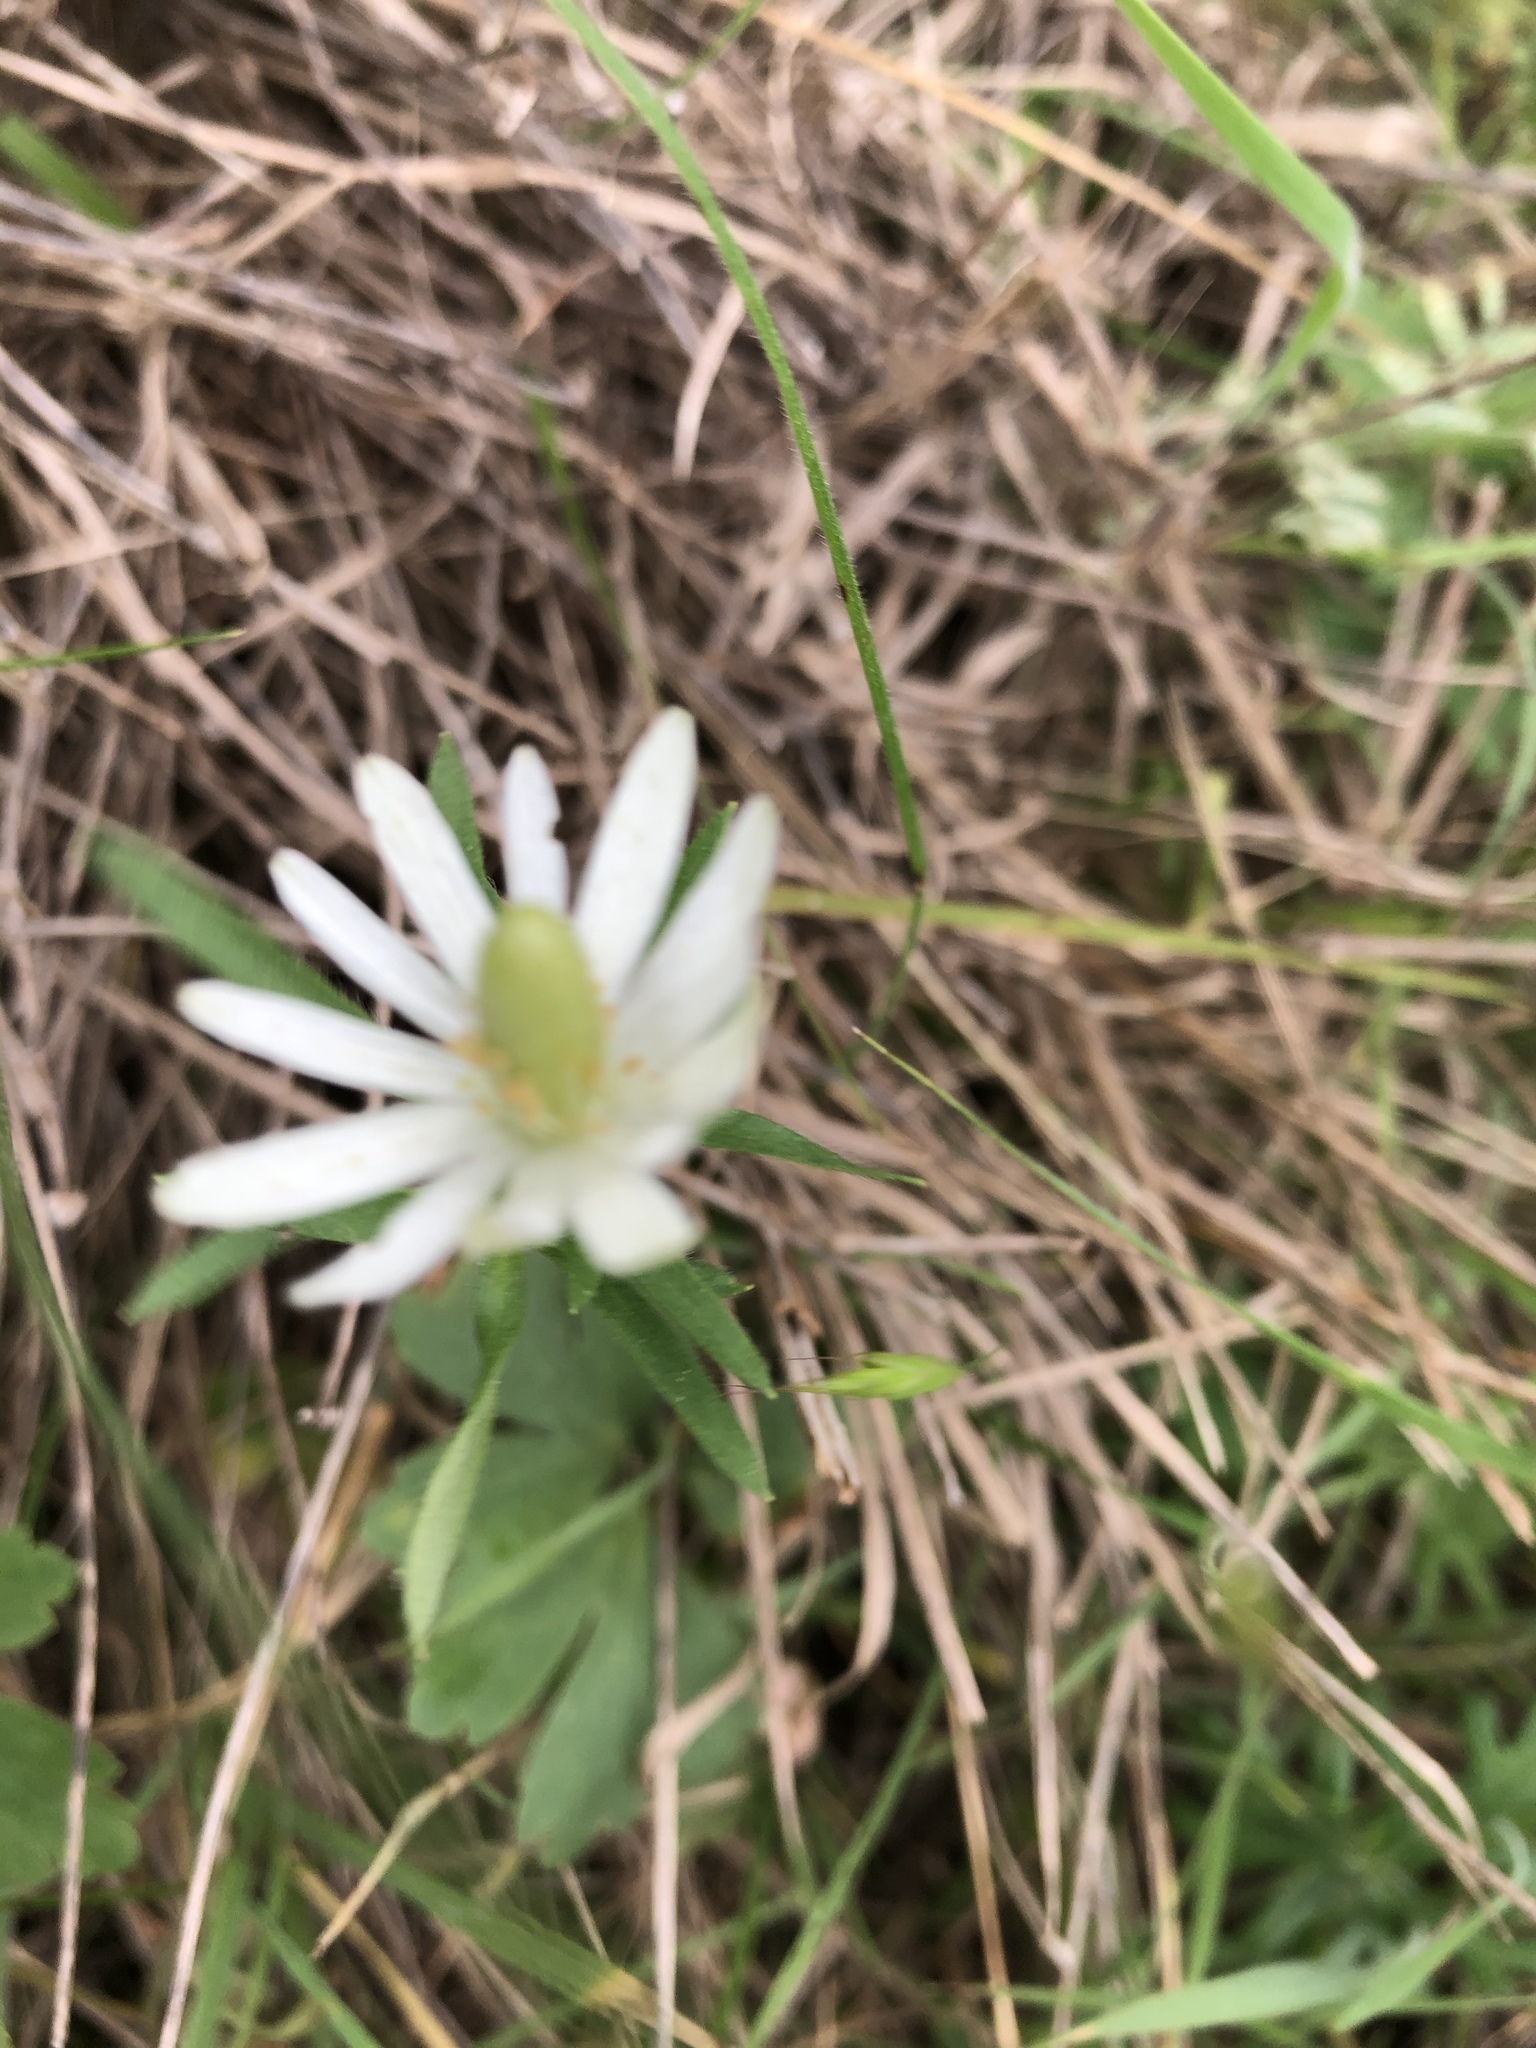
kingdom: Plantae
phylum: Tracheophyta
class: Magnoliopsida
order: Ranunculales
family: Ranunculaceae
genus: Anemone
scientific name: Anemone berlandieri
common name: Ten-petal anemone
